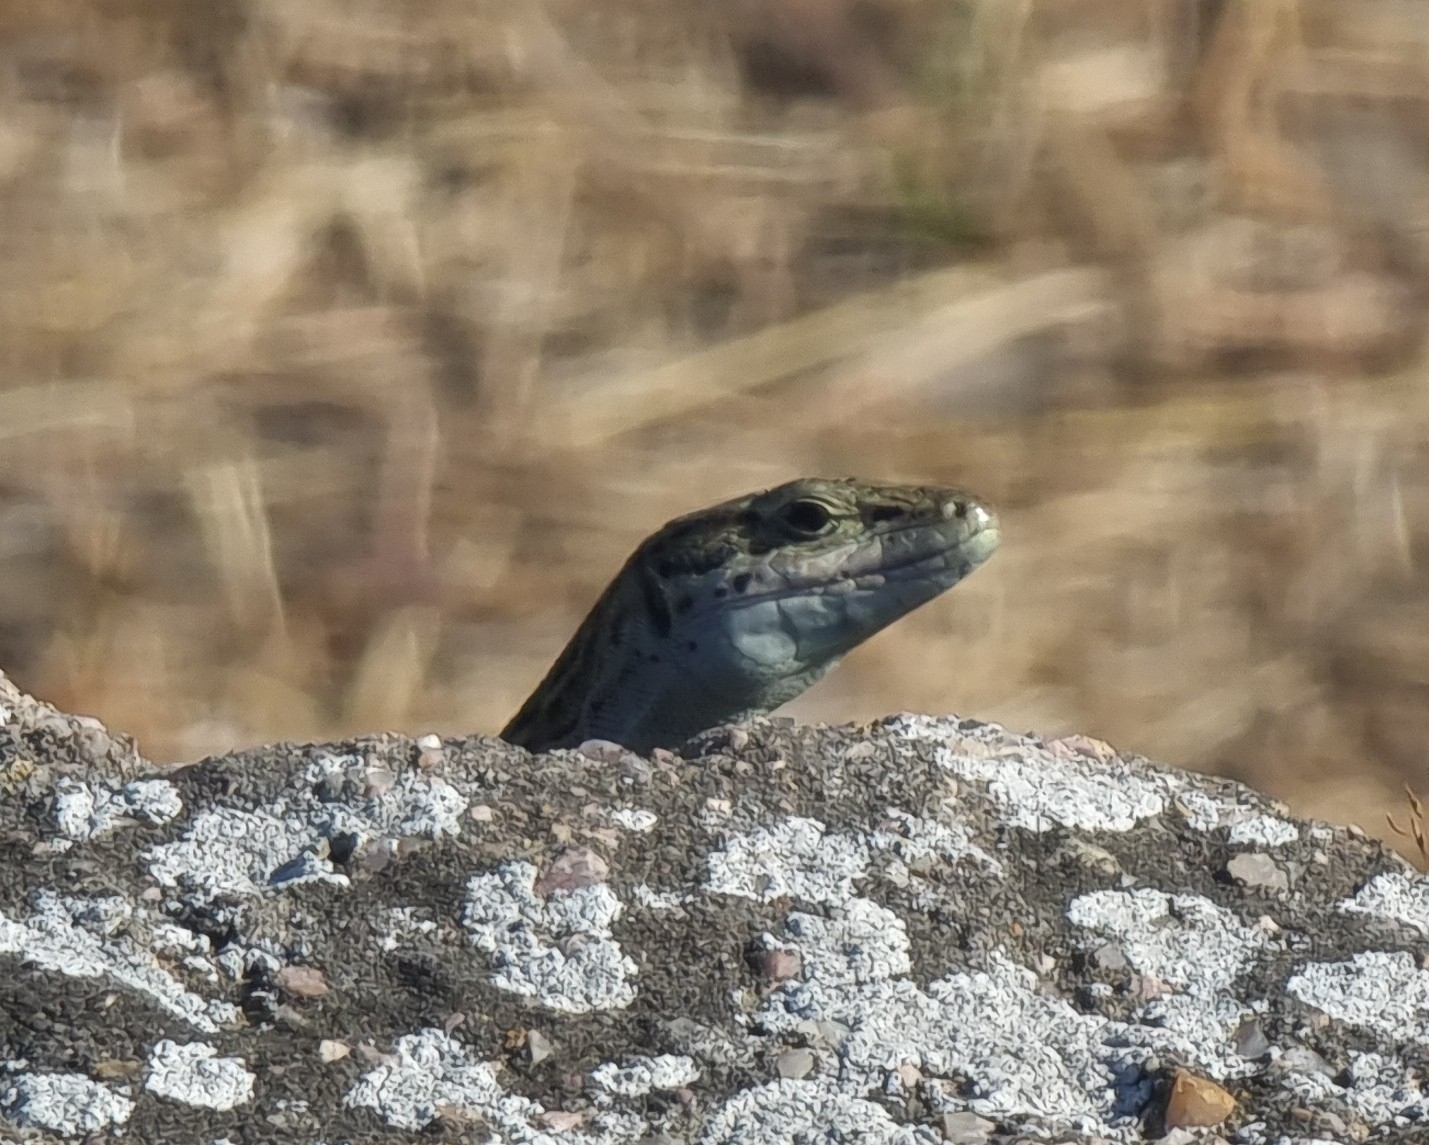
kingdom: Animalia
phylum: Chordata
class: Squamata
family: Lacertidae
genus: Podarcis
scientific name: Podarcis siculus
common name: Italian wall lizard
